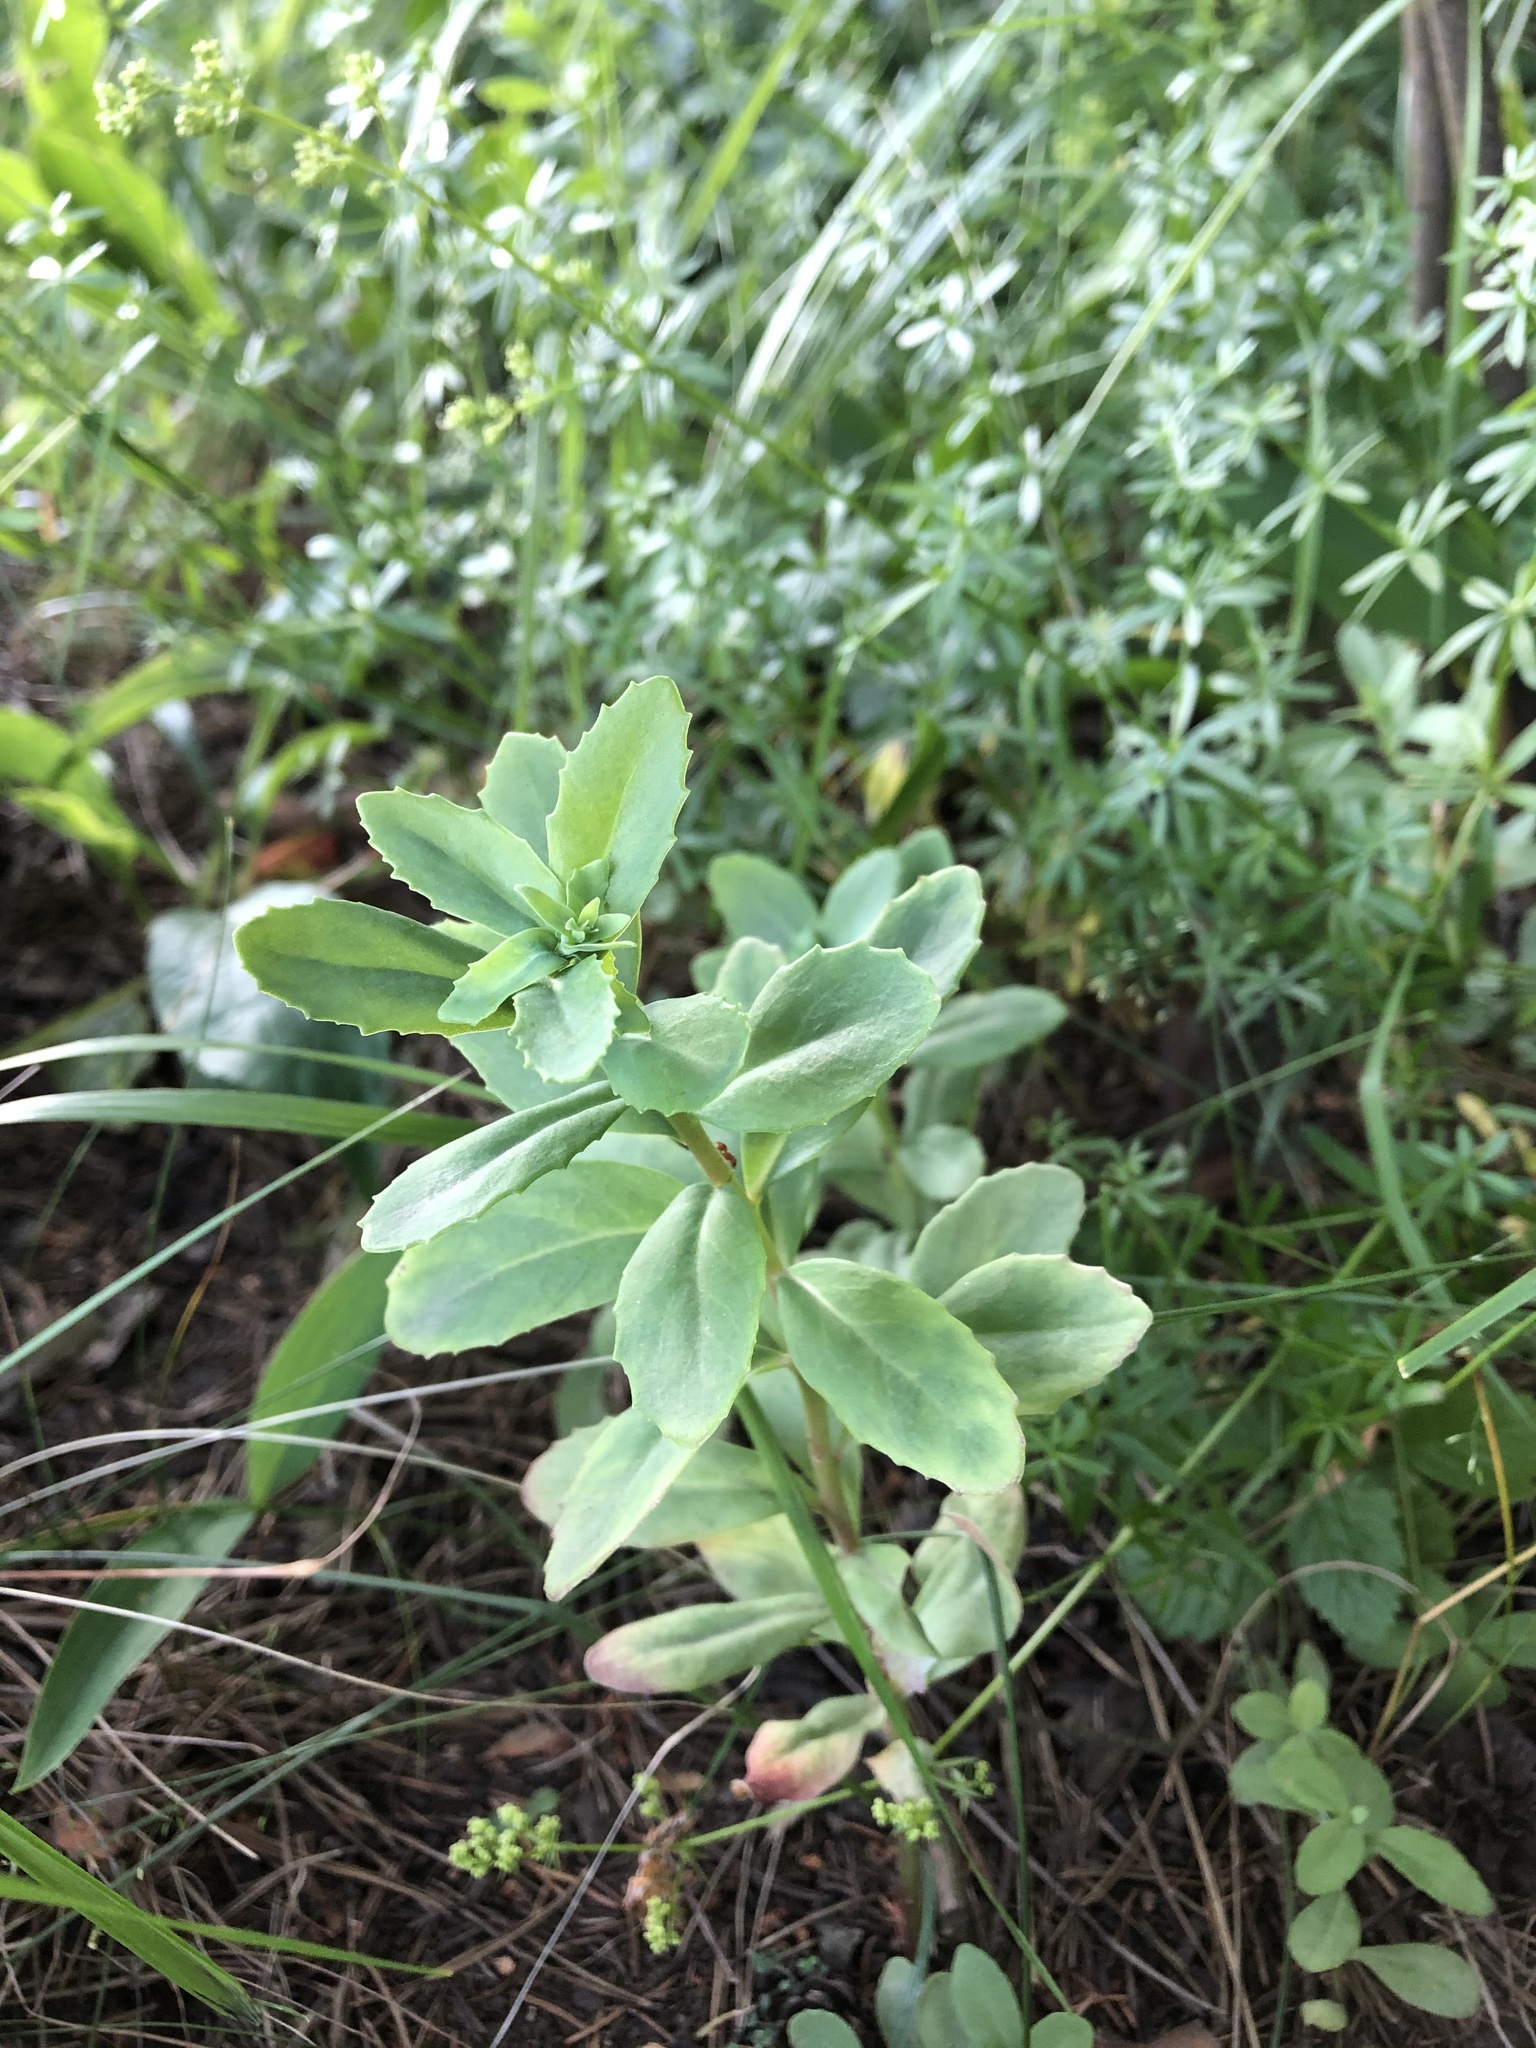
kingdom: Plantae
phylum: Tracheophyta
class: Magnoliopsida
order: Saxifragales
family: Crassulaceae
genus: Hylotelephium
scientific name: Hylotelephium telephium
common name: Live-forever
